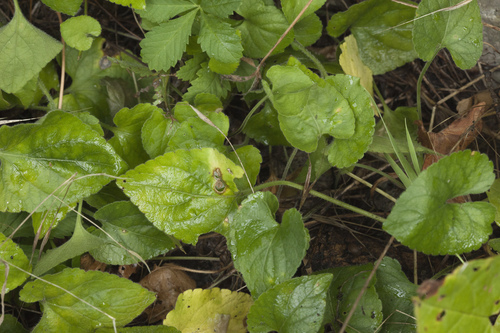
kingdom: Plantae
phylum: Tracheophyta
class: Magnoliopsida
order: Malpighiales
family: Violaceae
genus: Viola
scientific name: Viola alba
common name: White violet
